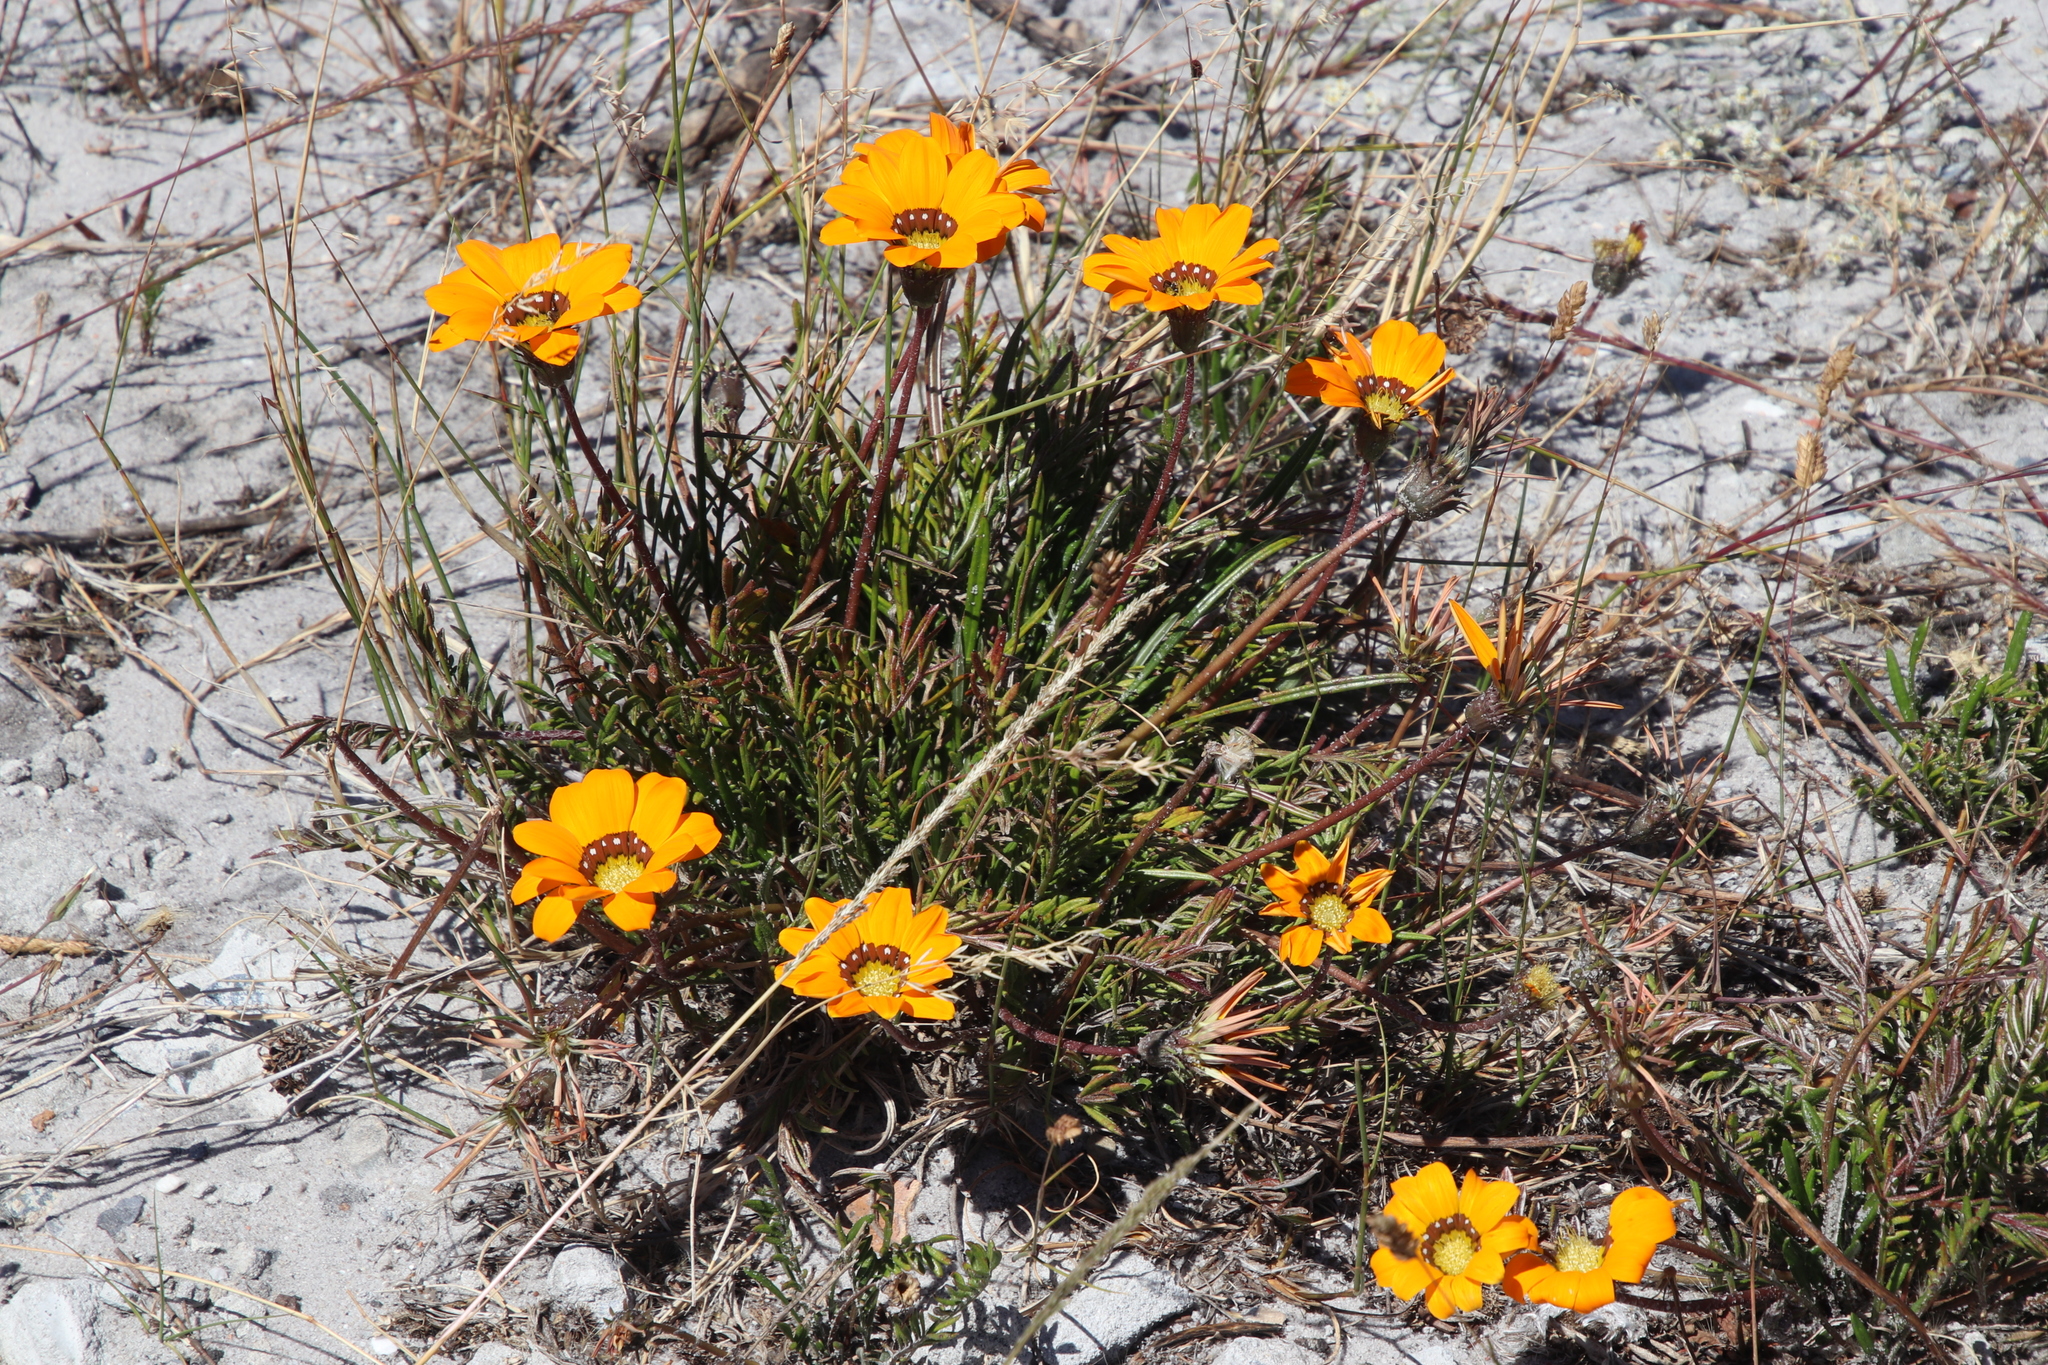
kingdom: Plantae
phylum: Tracheophyta
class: Magnoliopsida
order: Asterales
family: Asteraceae
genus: Gazania
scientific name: Gazania pectinata
